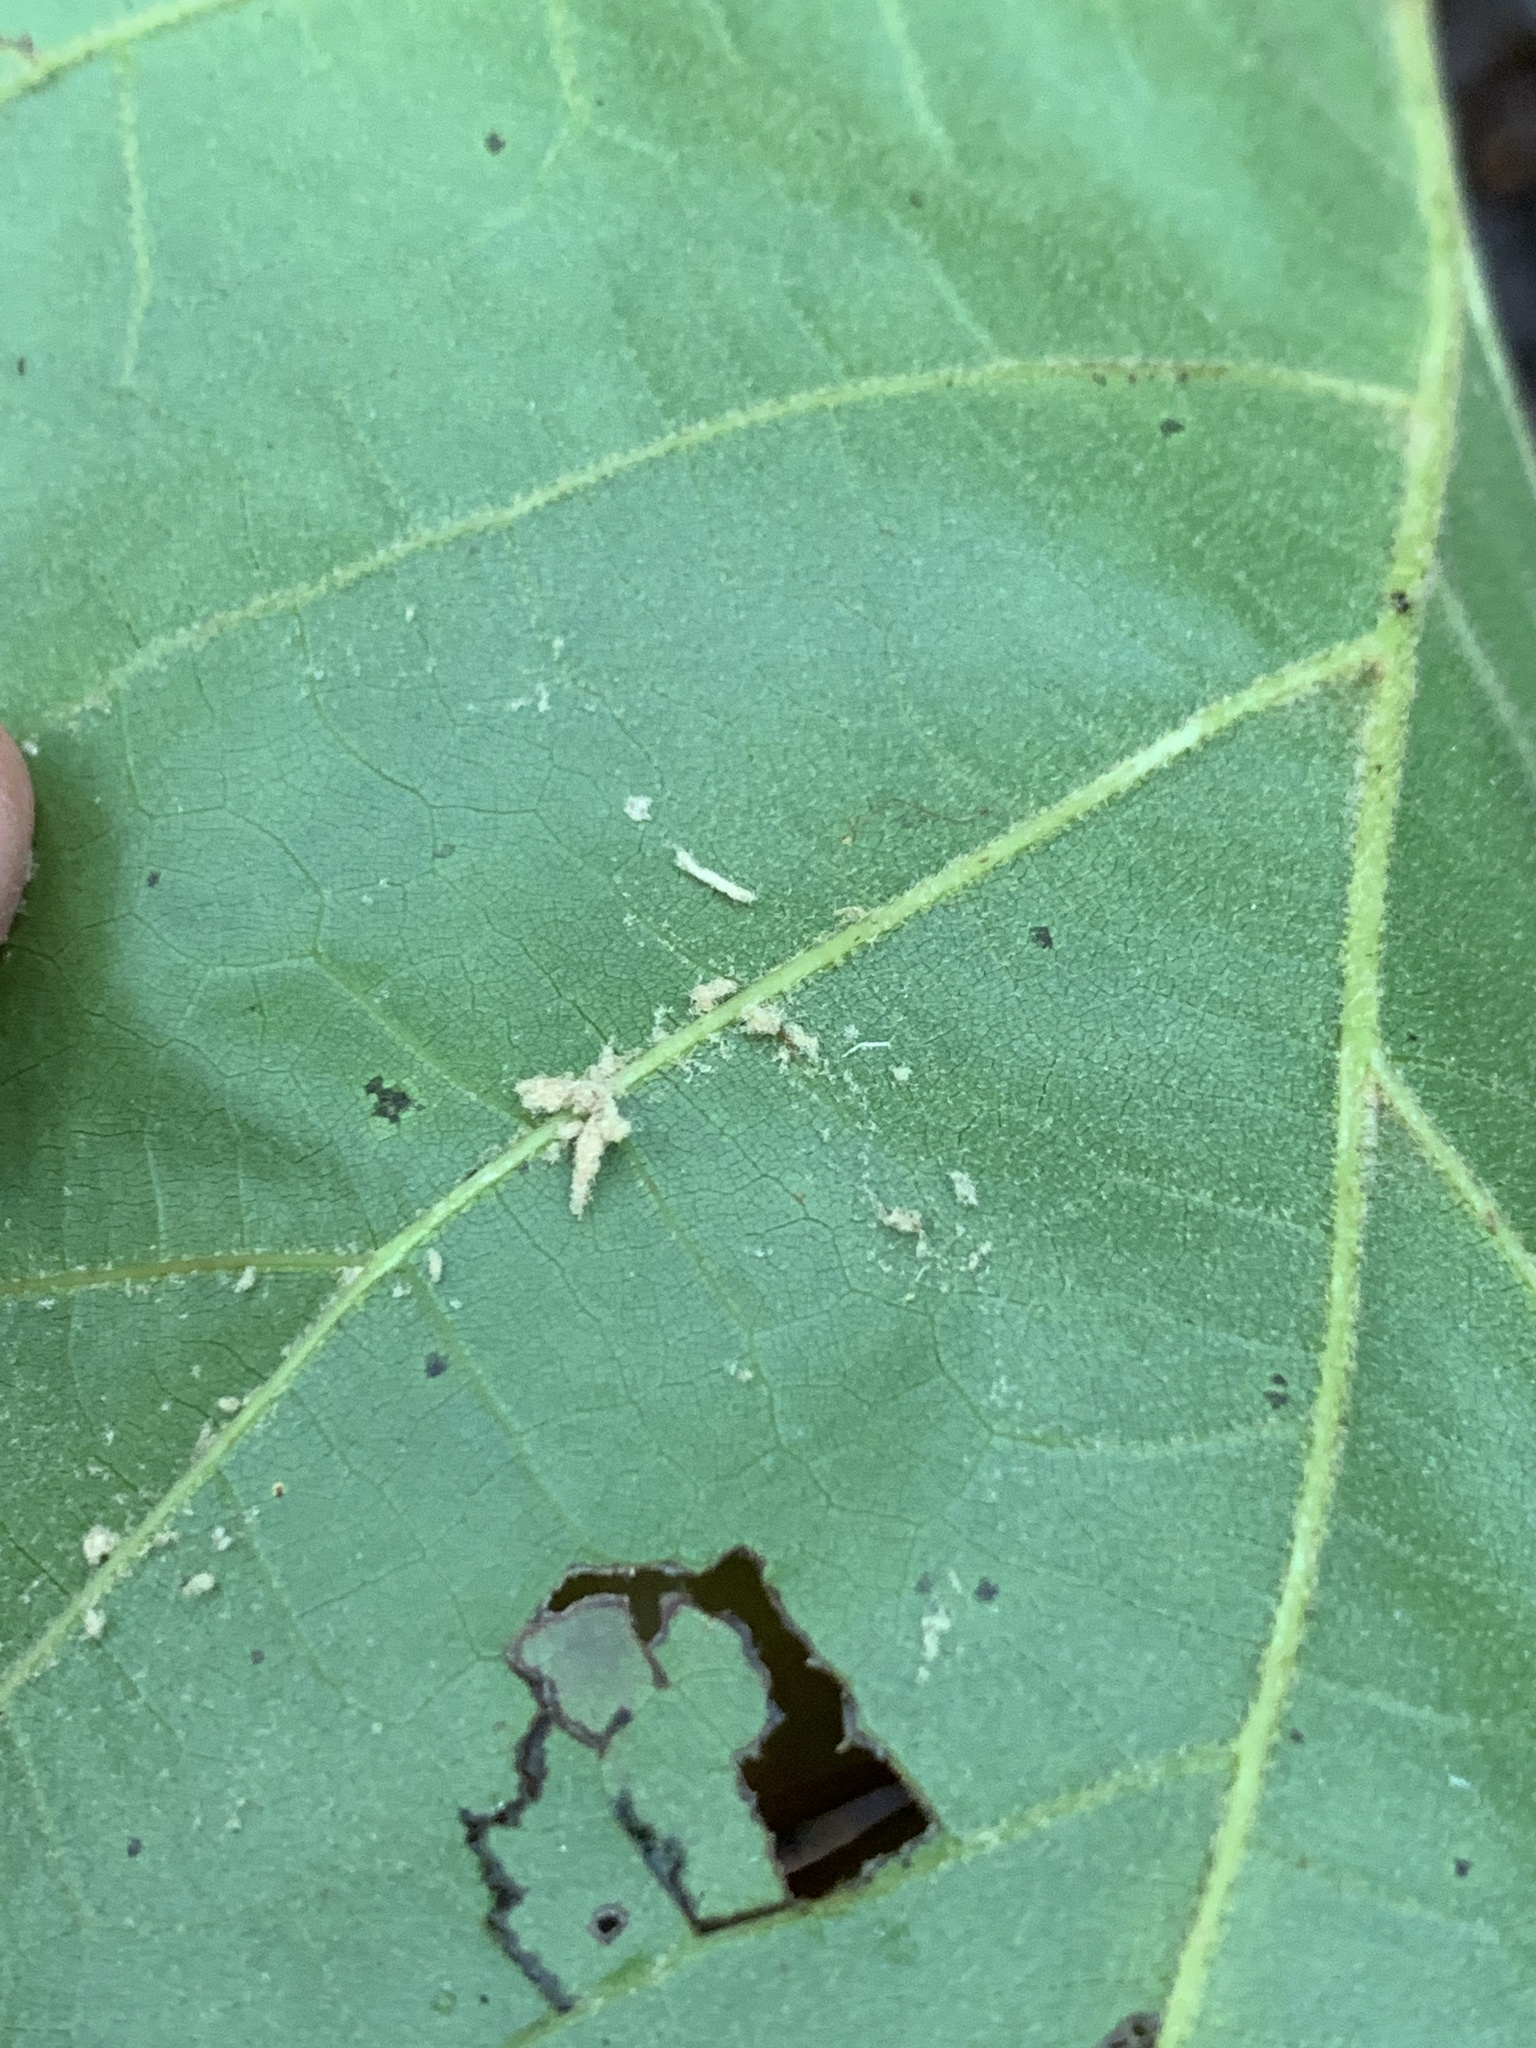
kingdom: Plantae
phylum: Tracheophyta
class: Magnoliopsida
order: Fagales
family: Fagaceae
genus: Quercus
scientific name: Quercus velutina
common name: Black oak
